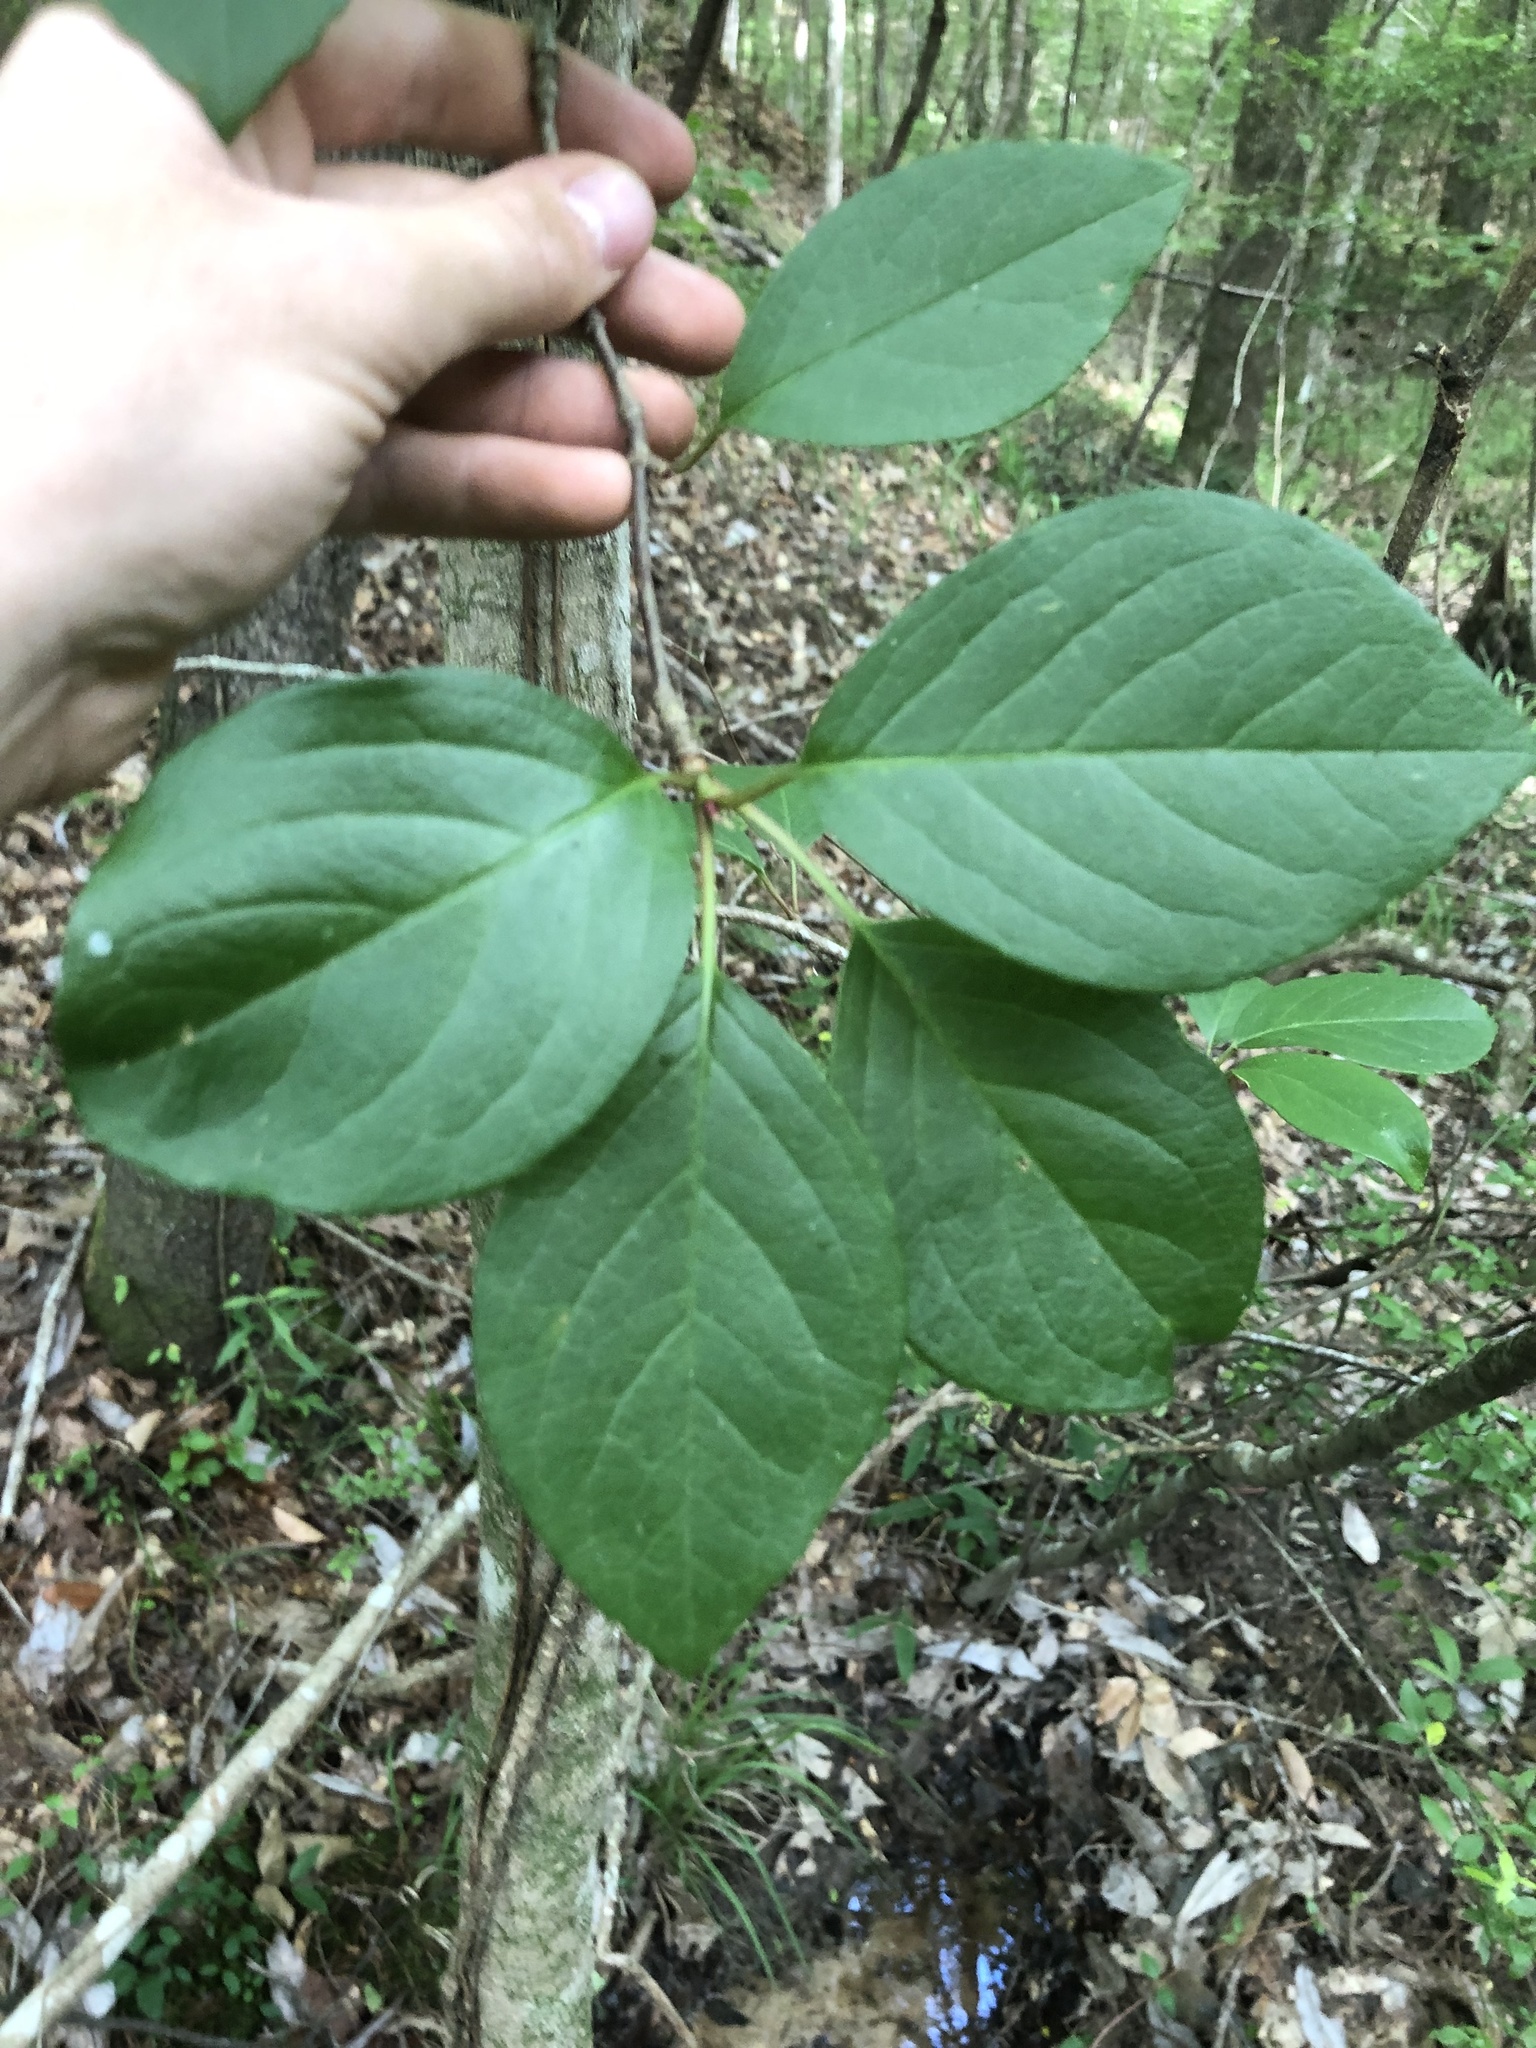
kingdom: Plantae
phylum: Tracheophyta
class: Magnoliopsida
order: Cornales
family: Hydrangeaceae
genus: Hydrangea
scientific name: Hydrangea barbara
